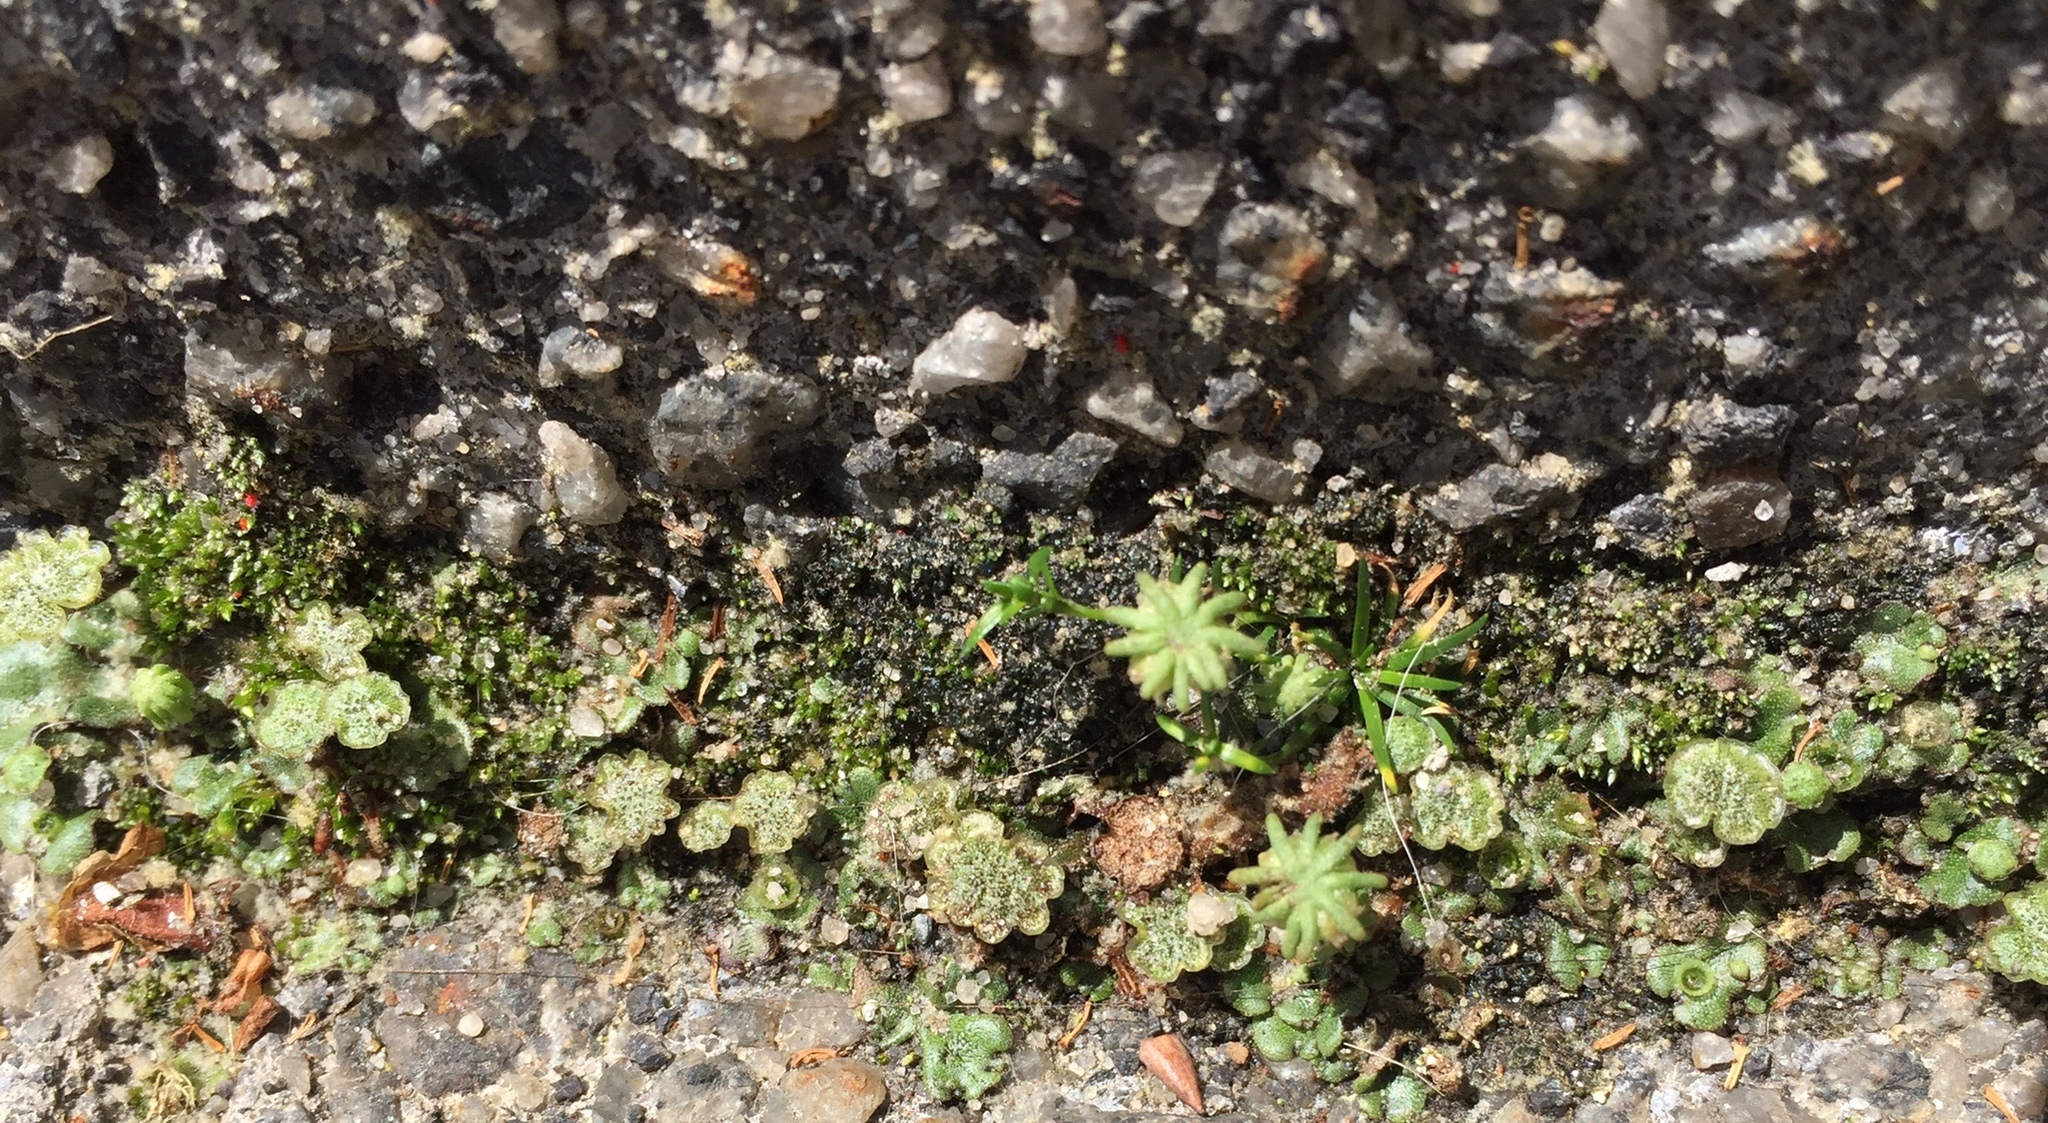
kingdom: Plantae
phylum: Marchantiophyta
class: Marchantiopsida
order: Marchantiales
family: Marchantiaceae
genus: Marchantia
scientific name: Marchantia polymorpha
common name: Common liverwort
